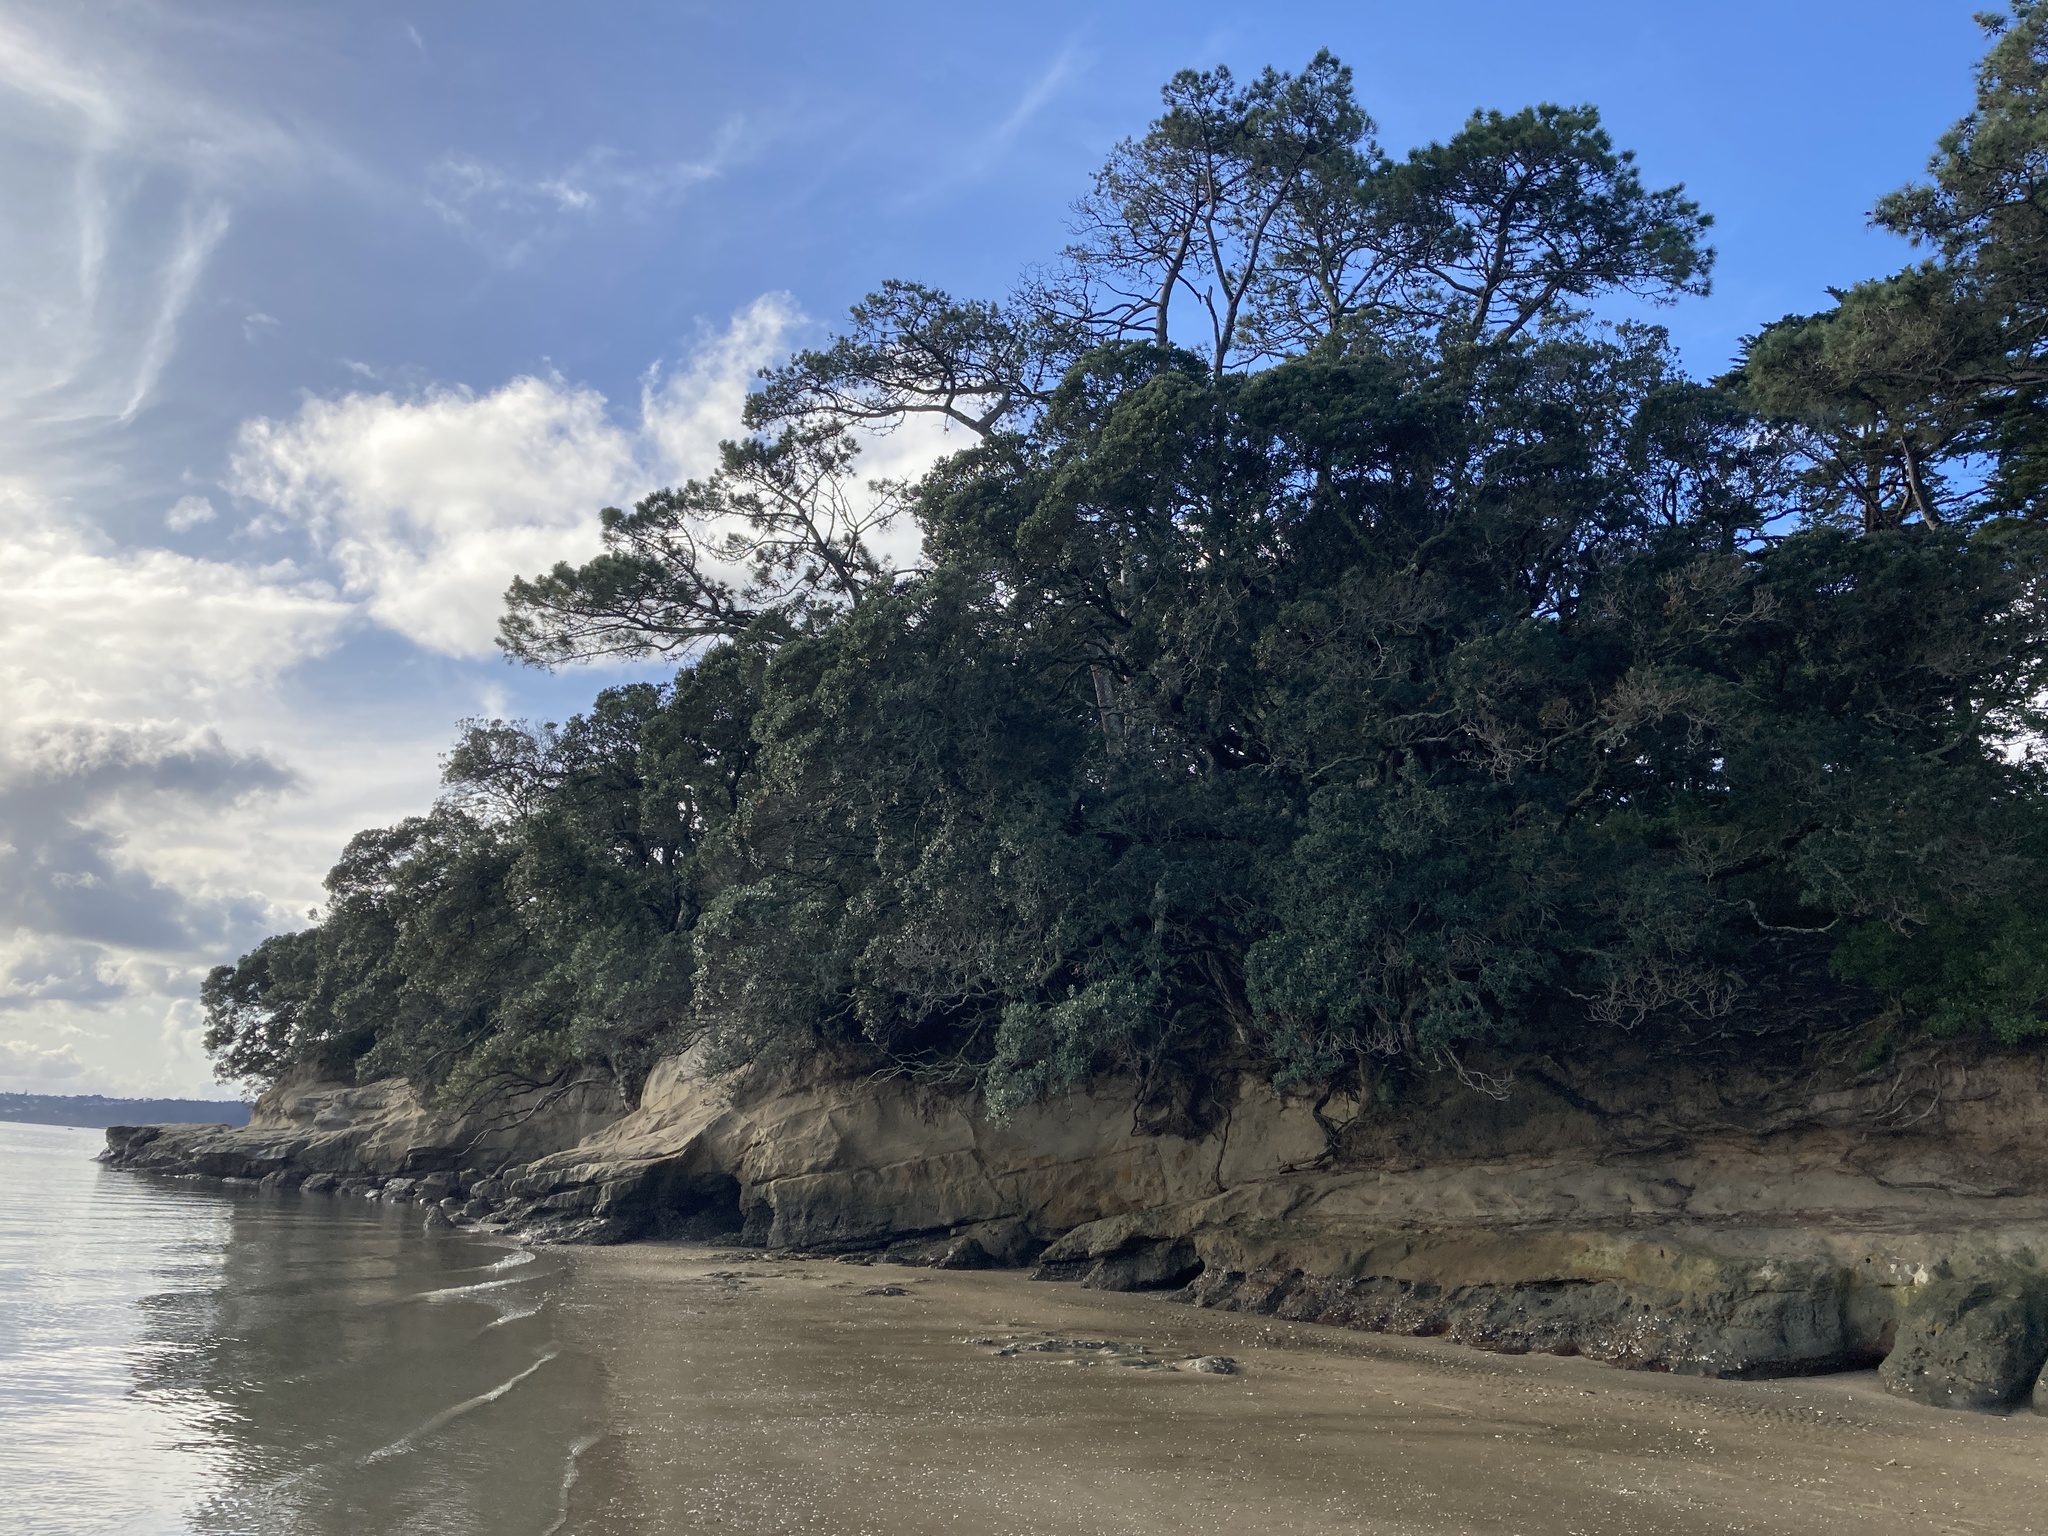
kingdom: Plantae
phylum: Tracheophyta
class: Magnoliopsida
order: Myrtales
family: Myrtaceae
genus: Metrosideros
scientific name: Metrosideros excelsa
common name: New zealand christmastree
